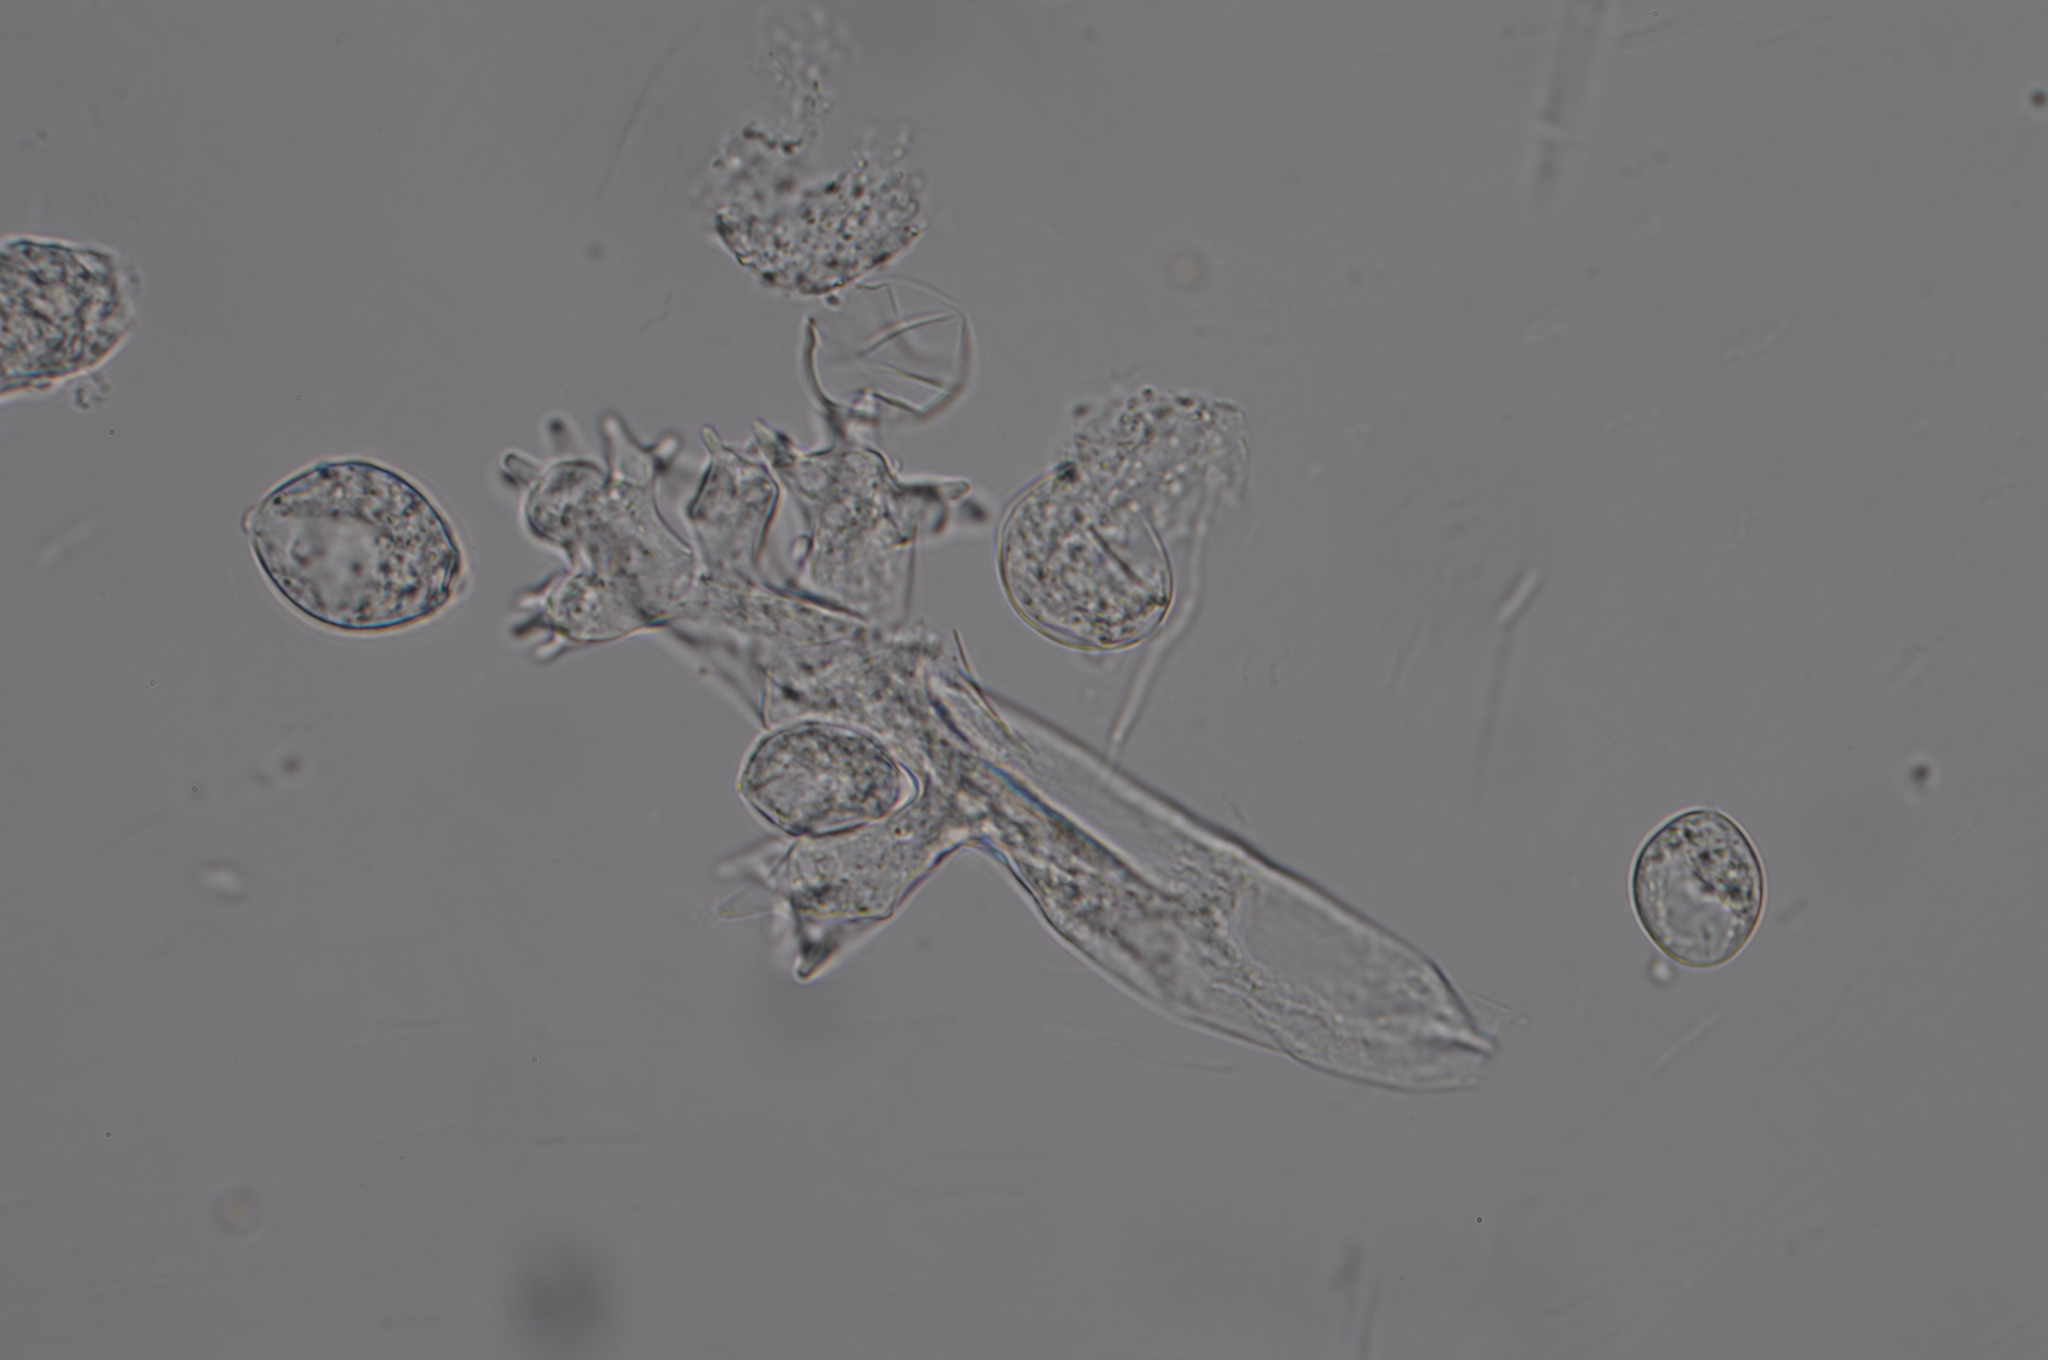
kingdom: Chromista
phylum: Oomycota
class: Peronosporea
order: Peronosporales
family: Peronosporaceae
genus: Sclerospora
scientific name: Sclerospora graminicola
